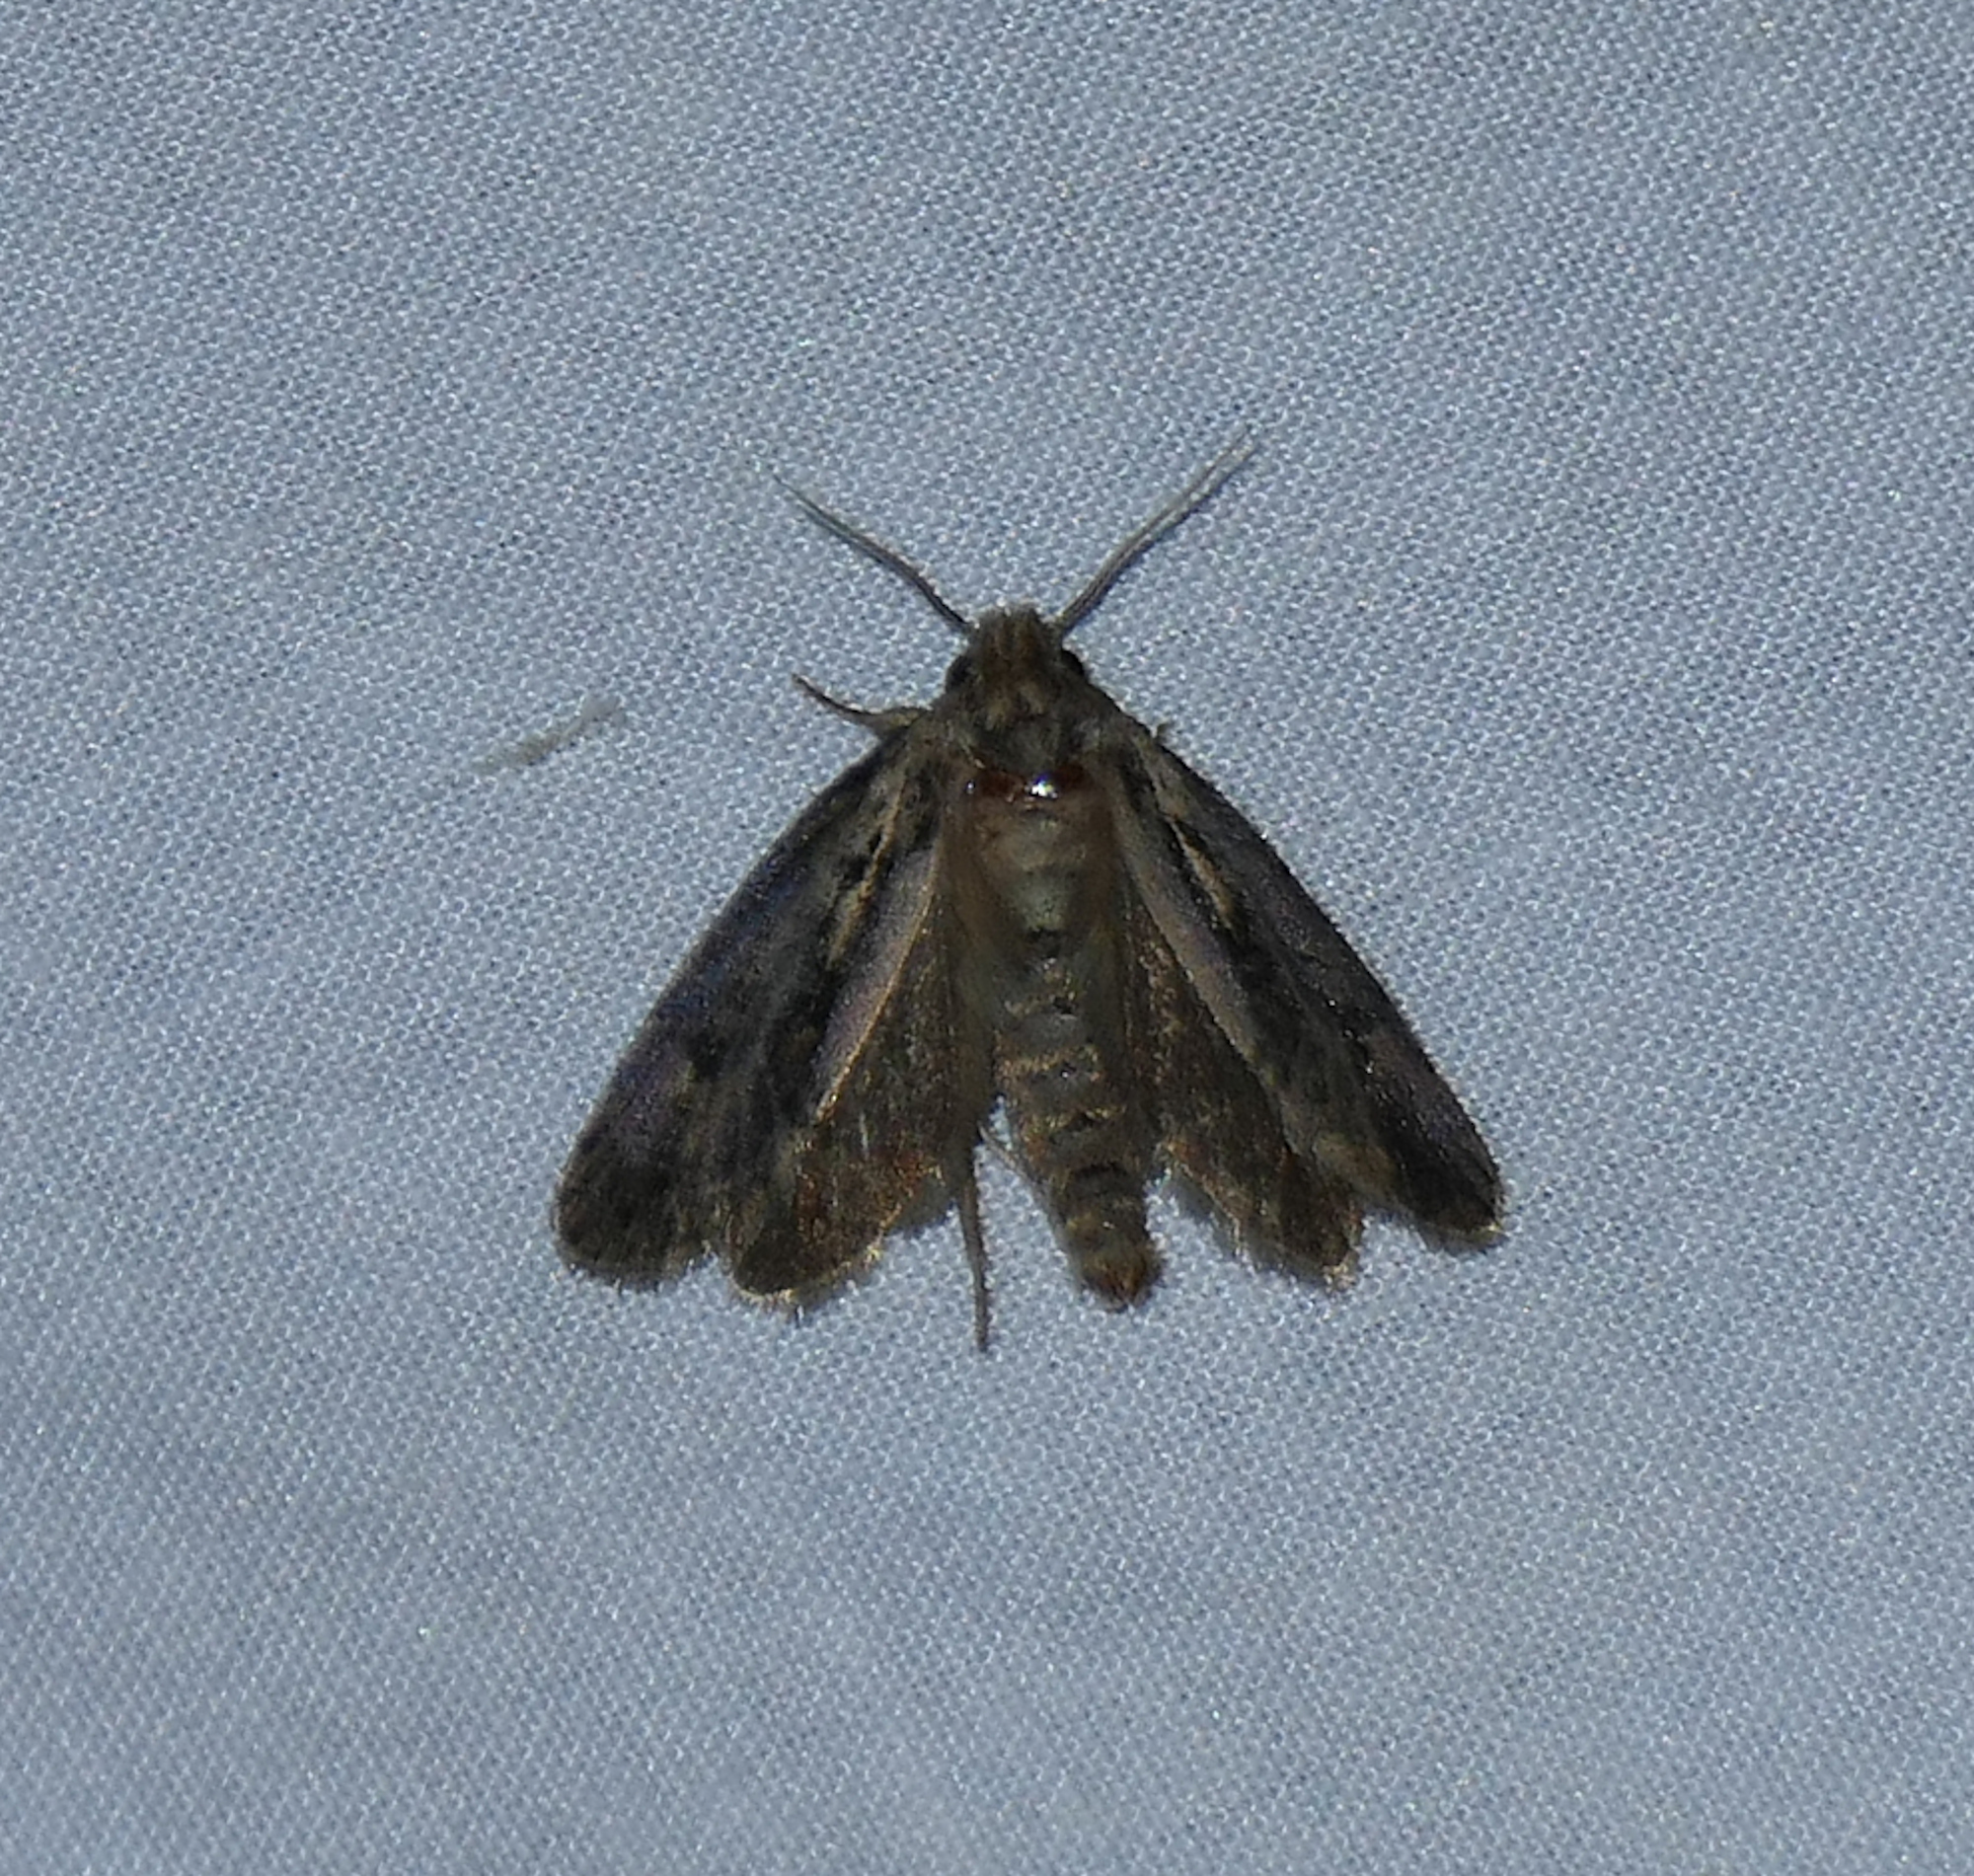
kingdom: Animalia
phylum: Arthropoda
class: Insecta
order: Lepidoptera
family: Tineidae
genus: Acrolophus
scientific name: Acrolophus popeanella
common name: Clemens' grass tubeworm moth
